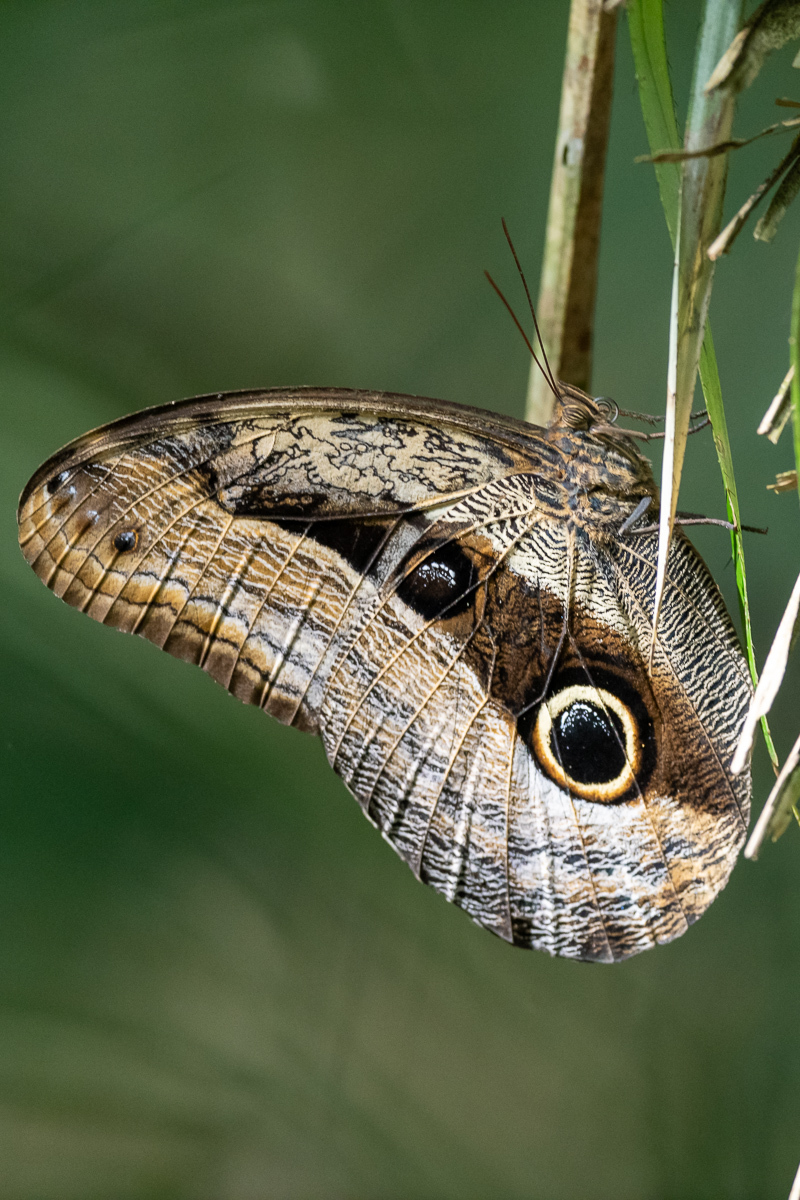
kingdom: Animalia
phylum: Arthropoda
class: Insecta
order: Lepidoptera
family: Nymphalidae
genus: Caligo
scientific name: Caligo placidianus
